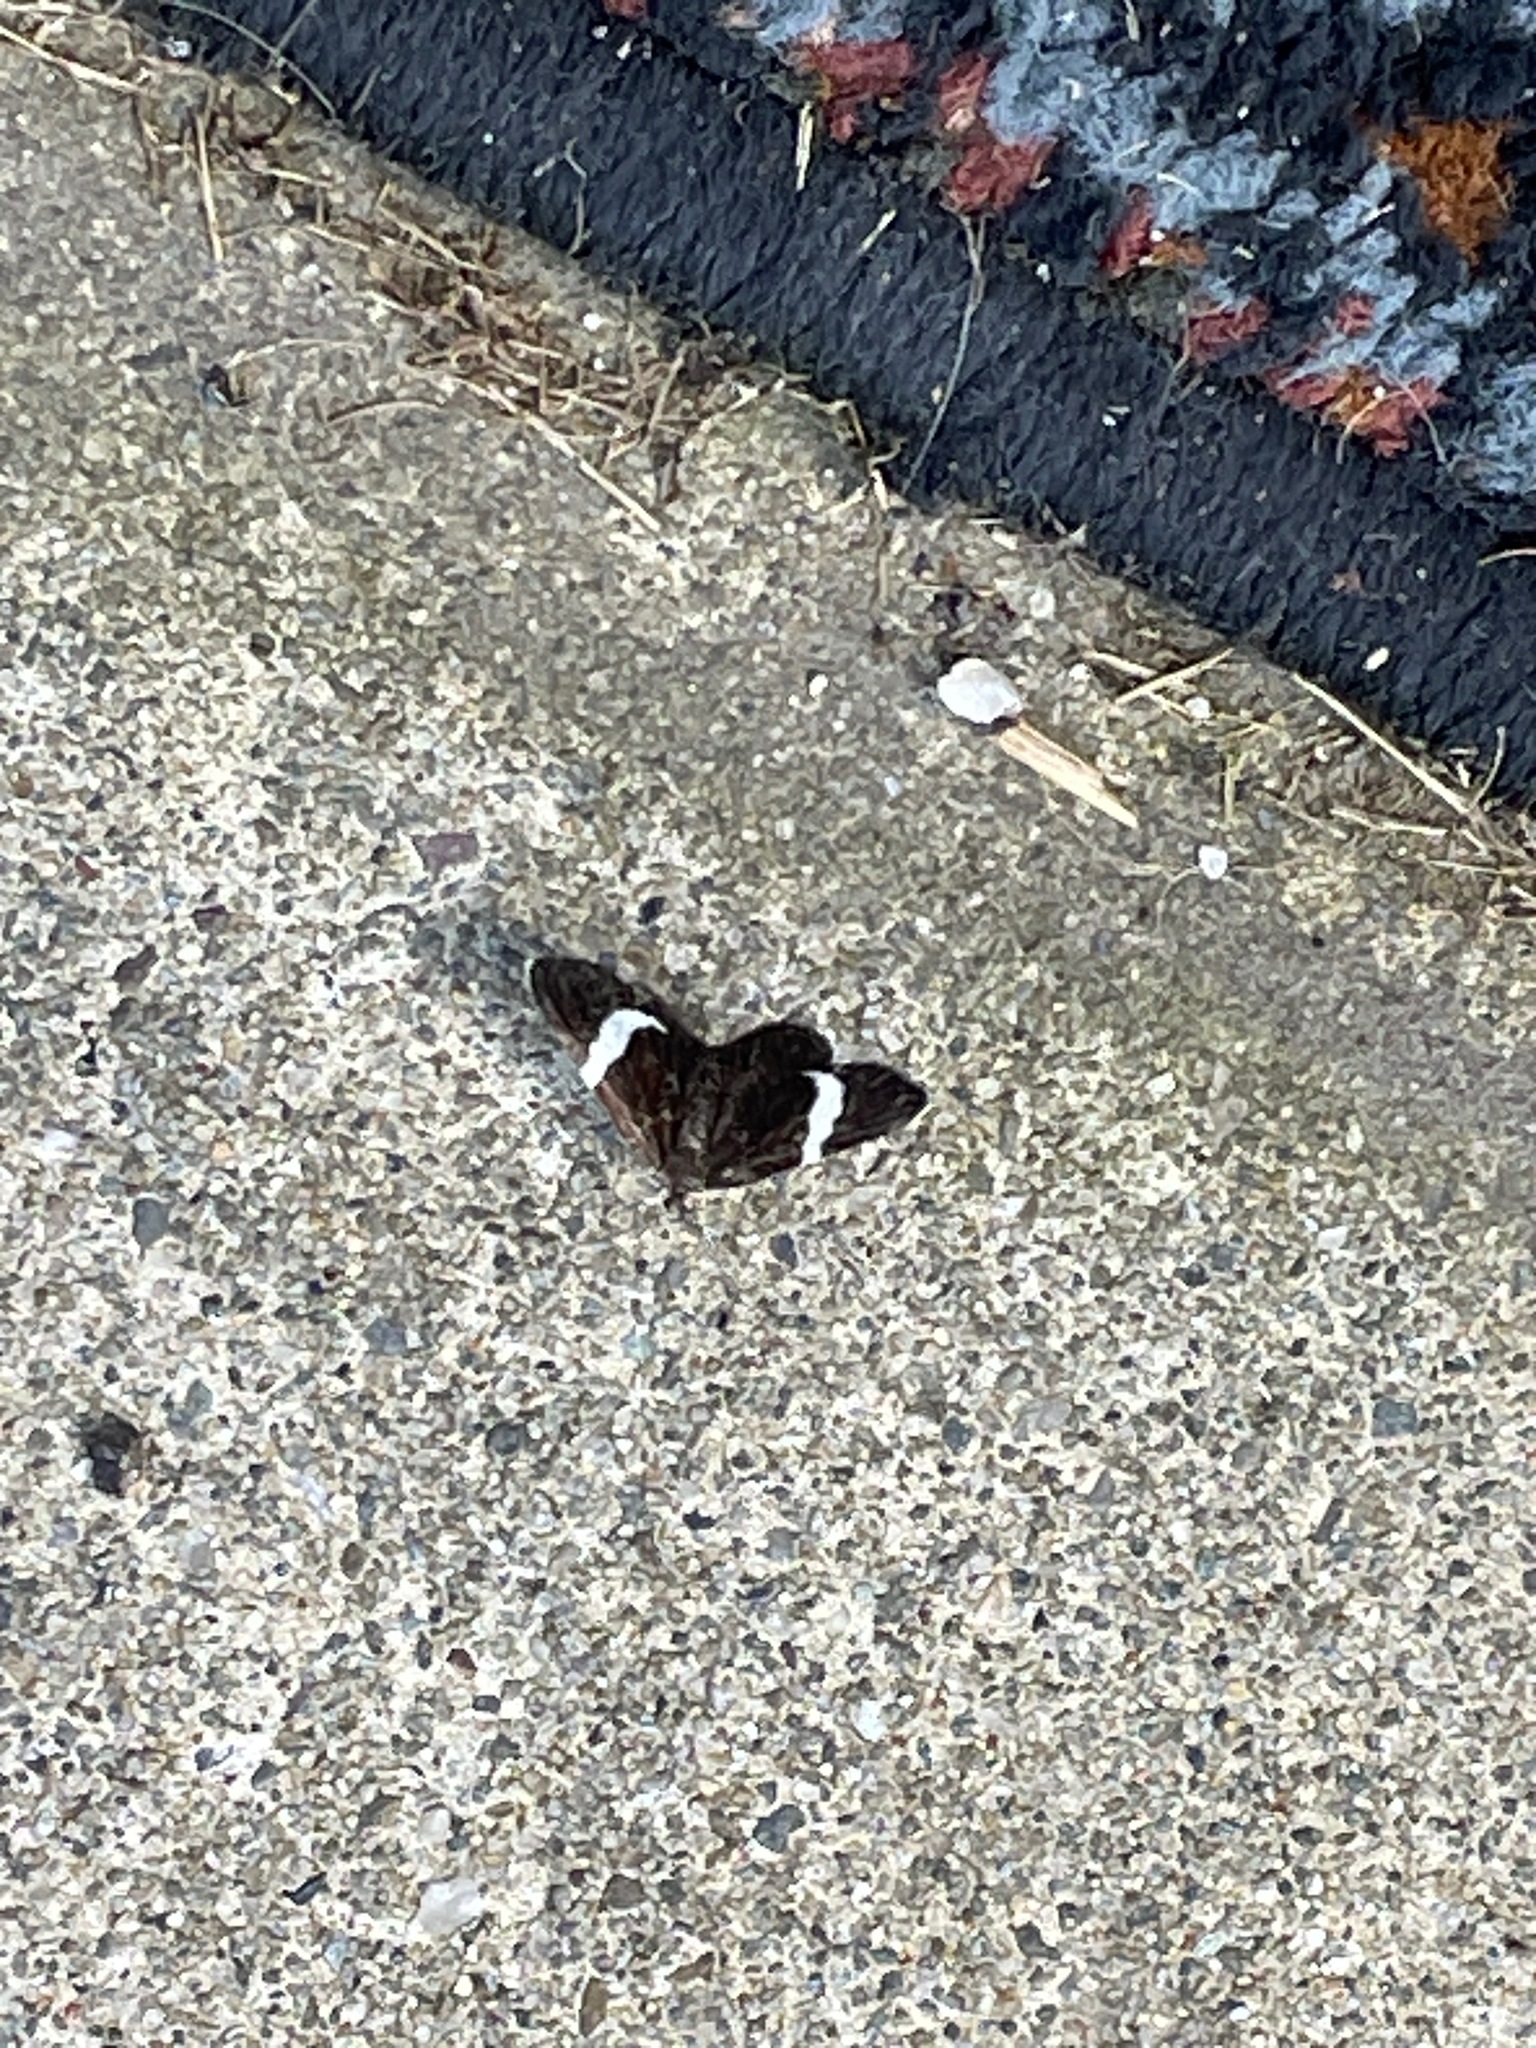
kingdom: Animalia
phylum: Arthropoda
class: Insecta
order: Lepidoptera
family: Geometridae
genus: Trichodezia
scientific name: Trichodezia albovittata
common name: White striped black
